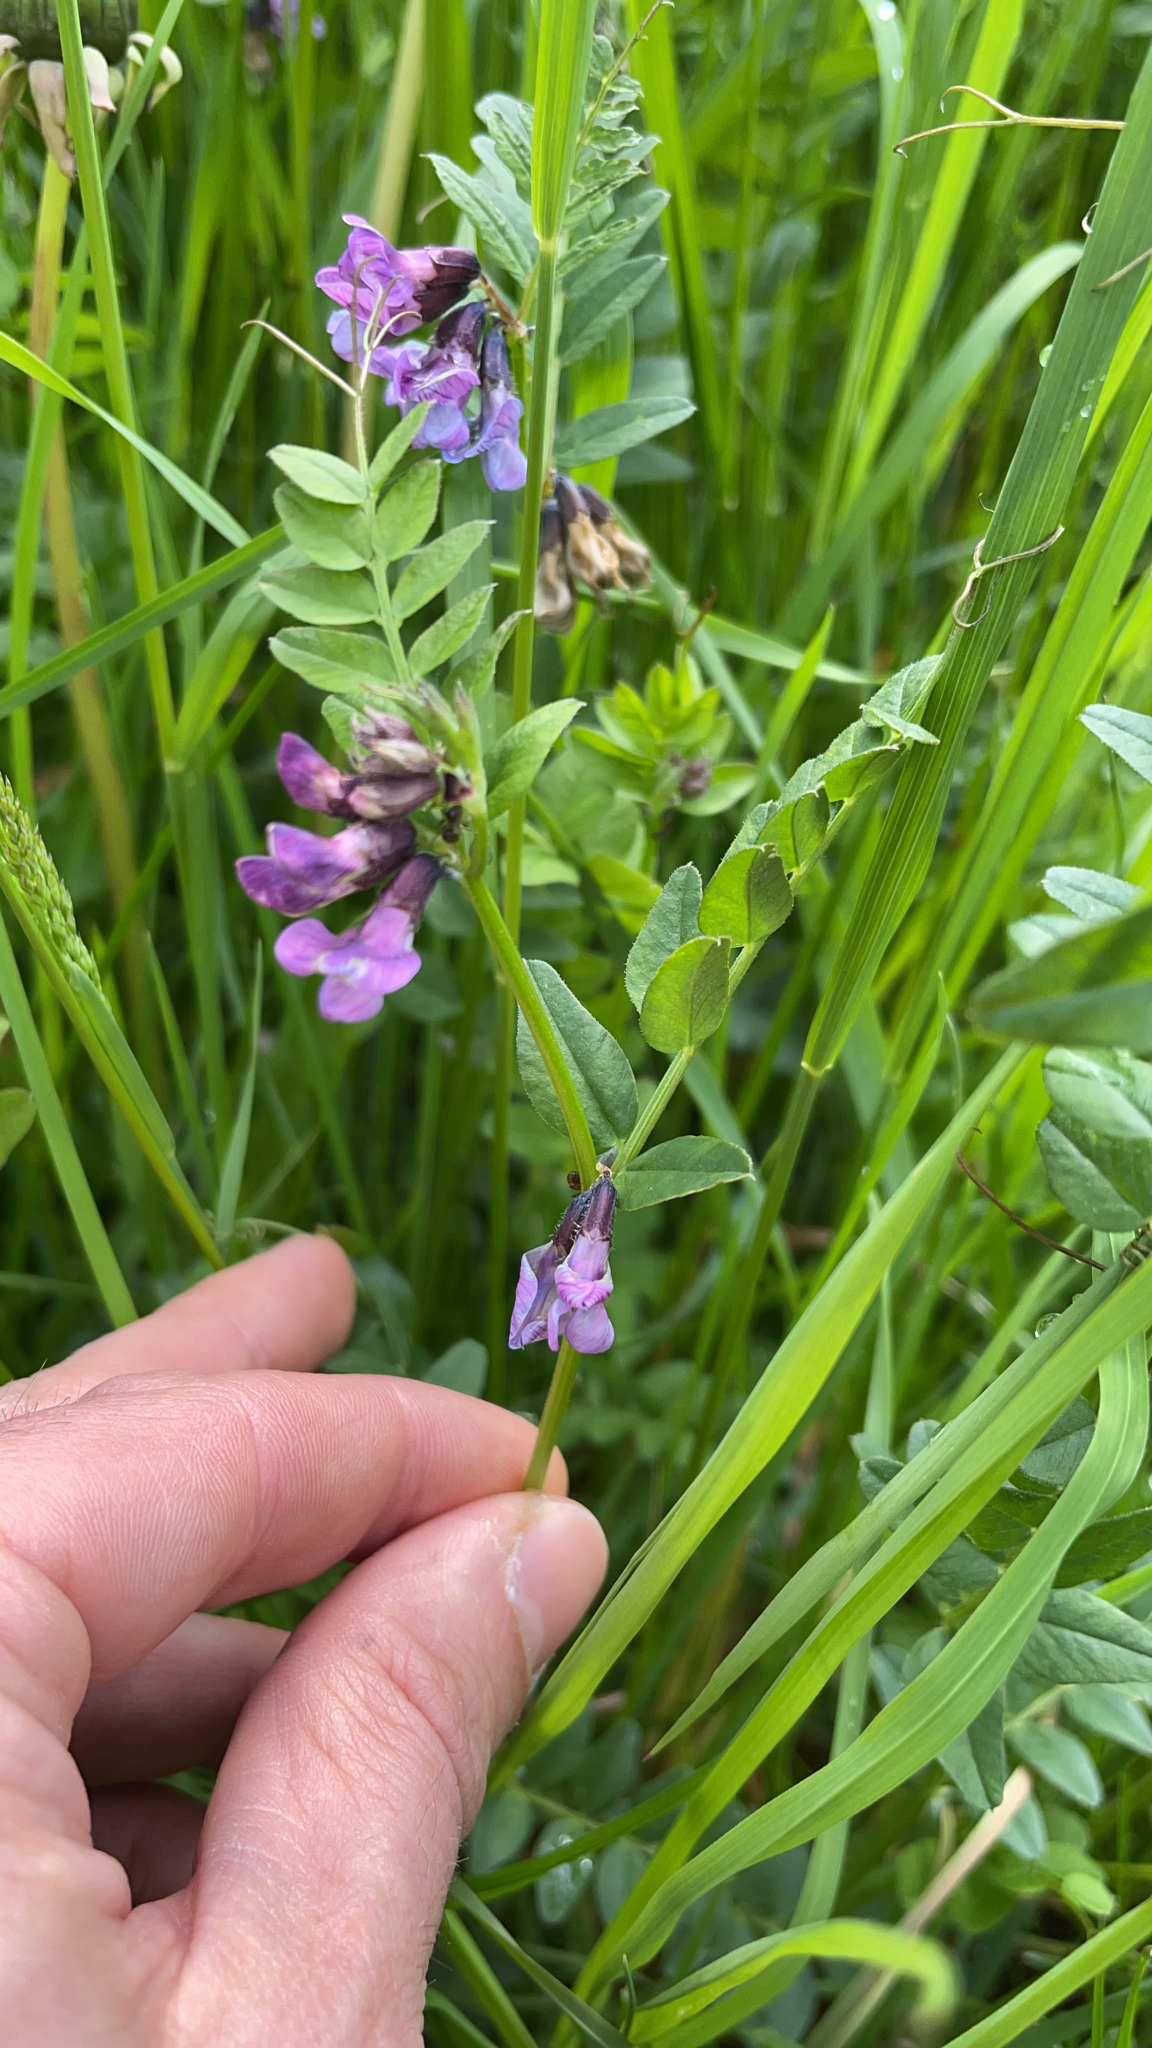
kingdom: Plantae
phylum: Tracheophyta
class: Magnoliopsida
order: Fabales
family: Fabaceae
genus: Vicia
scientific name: Vicia sepium
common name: Bush vetch
